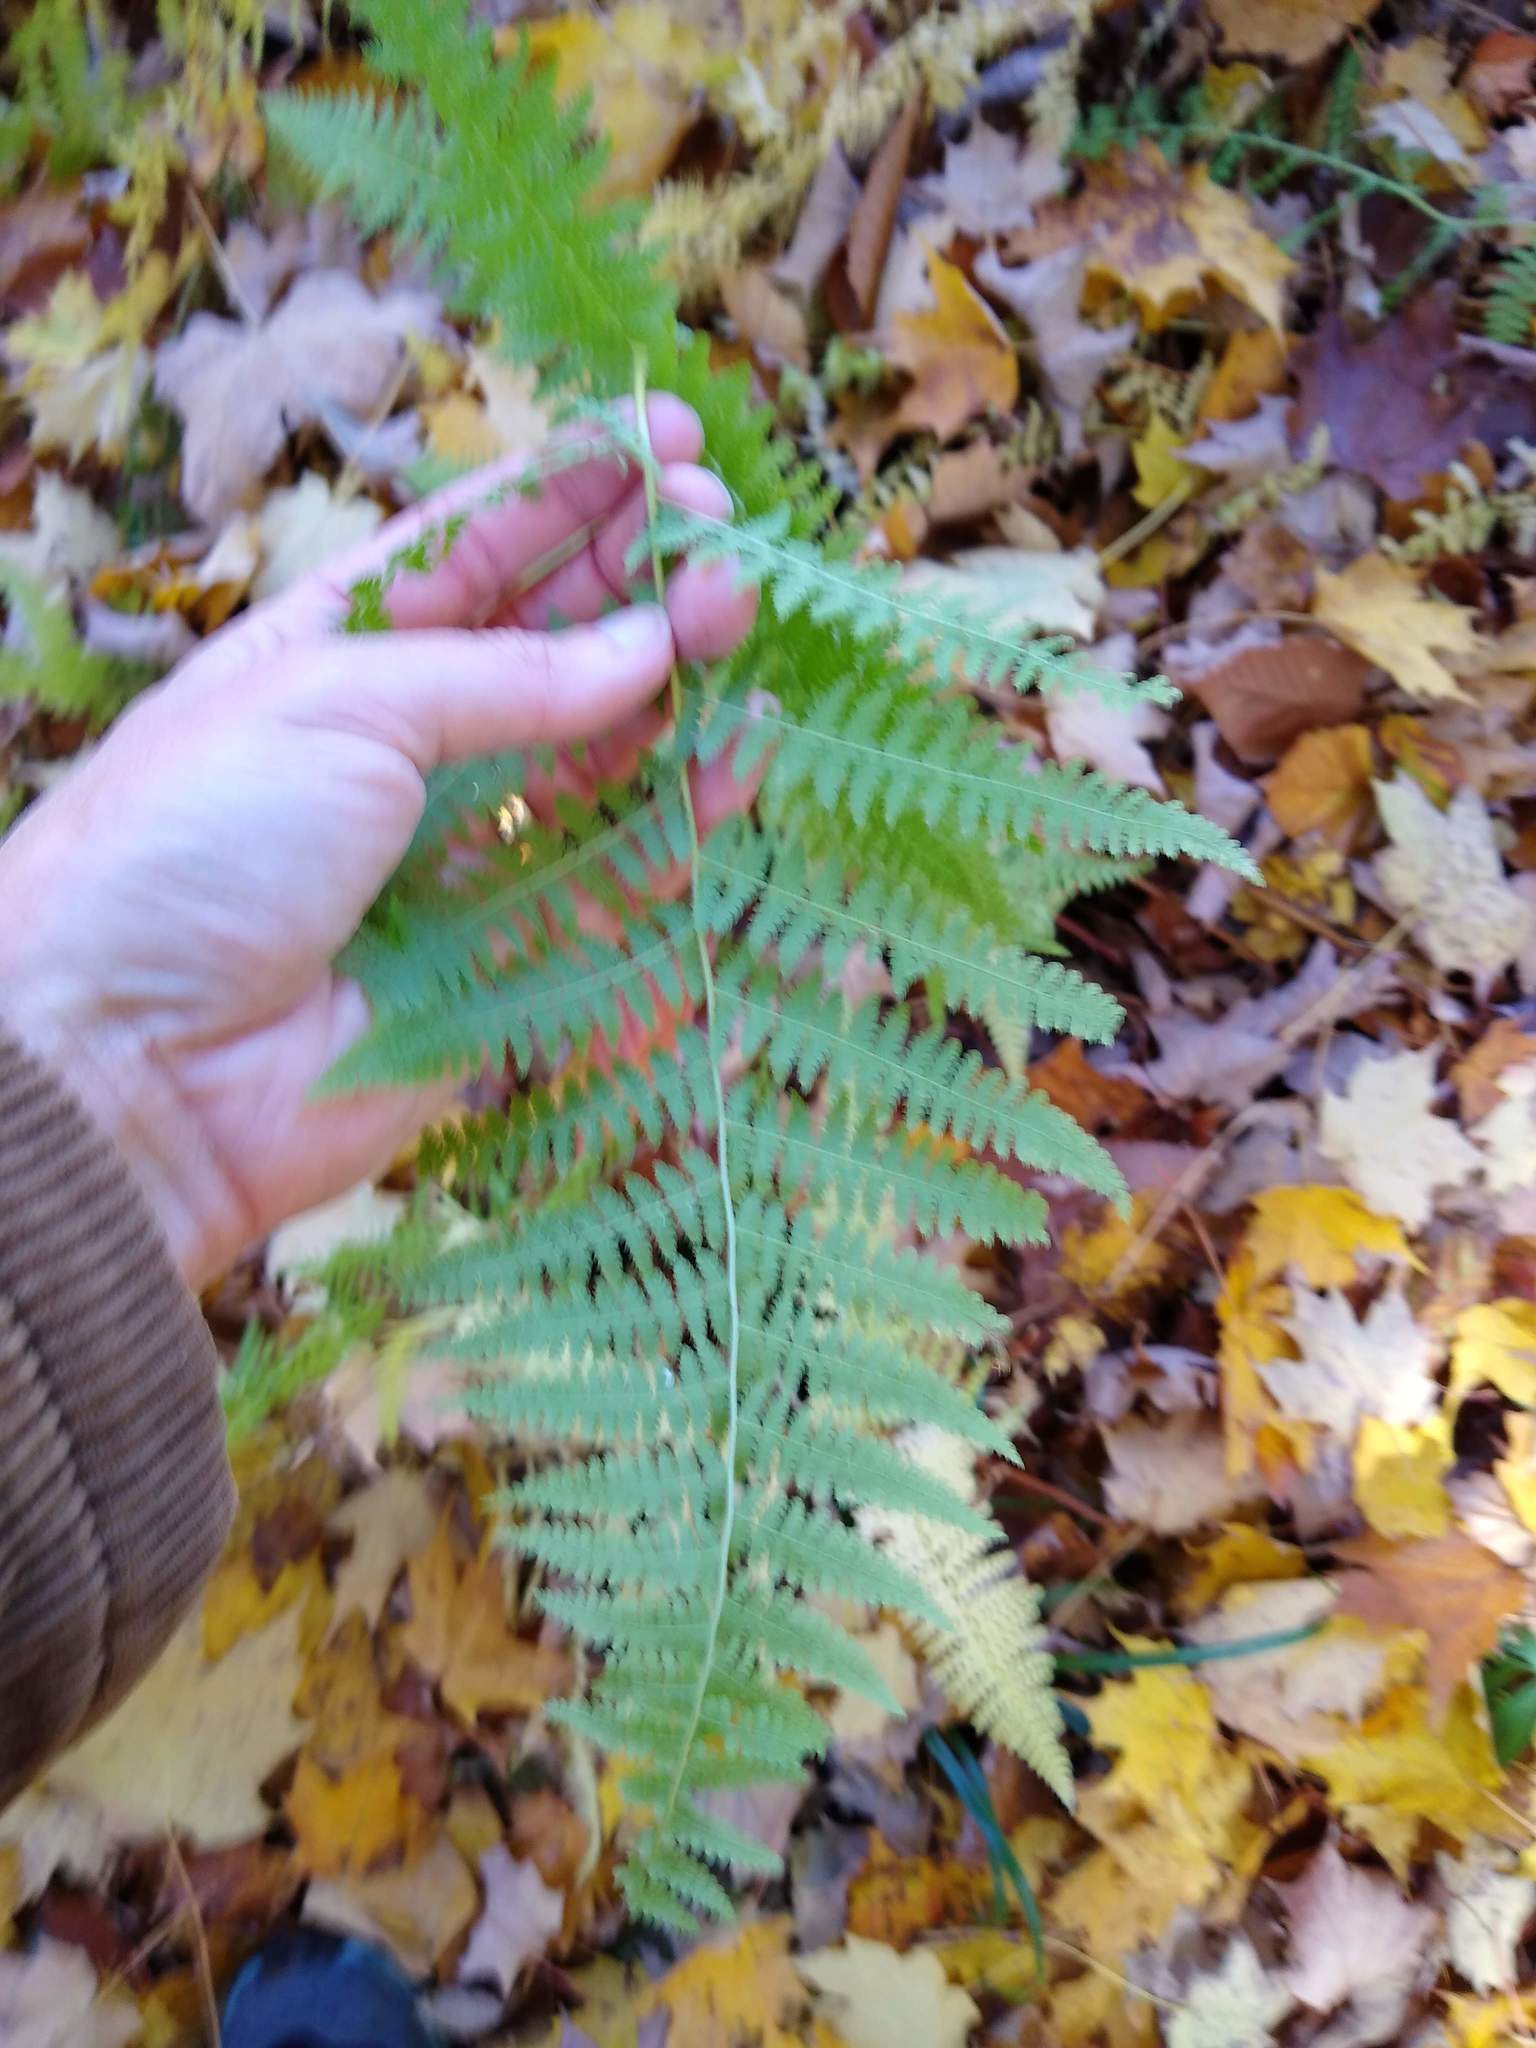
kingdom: Plantae
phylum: Tracheophyta
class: Polypodiopsida
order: Polypodiales
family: Dryopteridaceae
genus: Dryopteris
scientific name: Dryopteris marginalis
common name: Marginal wood fern
